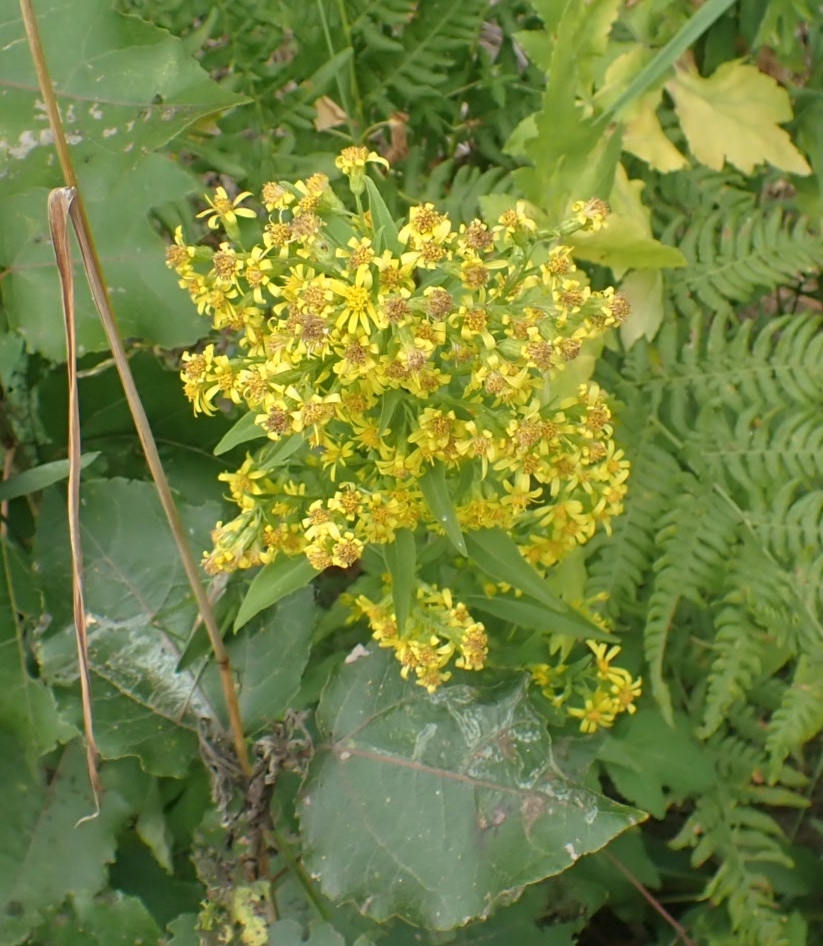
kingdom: Plantae
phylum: Tracheophyta
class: Magnoliopsida
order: Asterales
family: Asteraceae
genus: Solidago
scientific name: Solidago virgaurea
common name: Goldenrod
